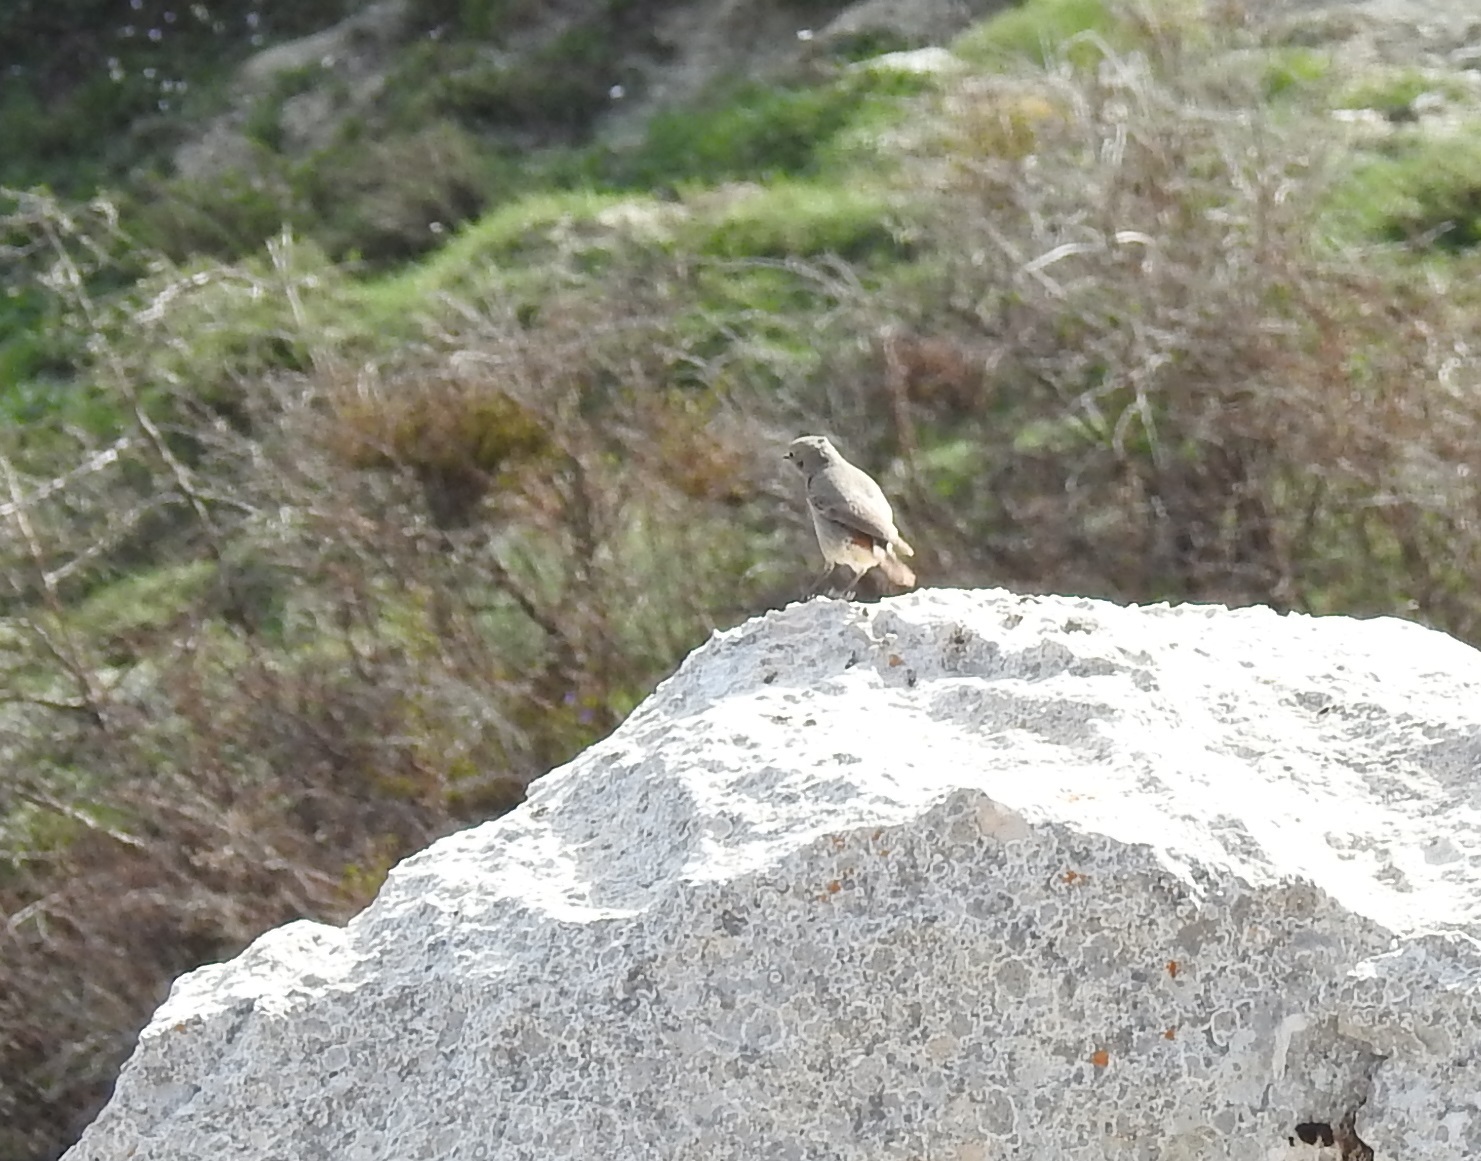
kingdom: Animalia
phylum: Chordata
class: Aves
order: Passeriformes
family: Muscicapidae
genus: Phoenicurus
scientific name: Phoenicurus ochruros
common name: Black redstart
